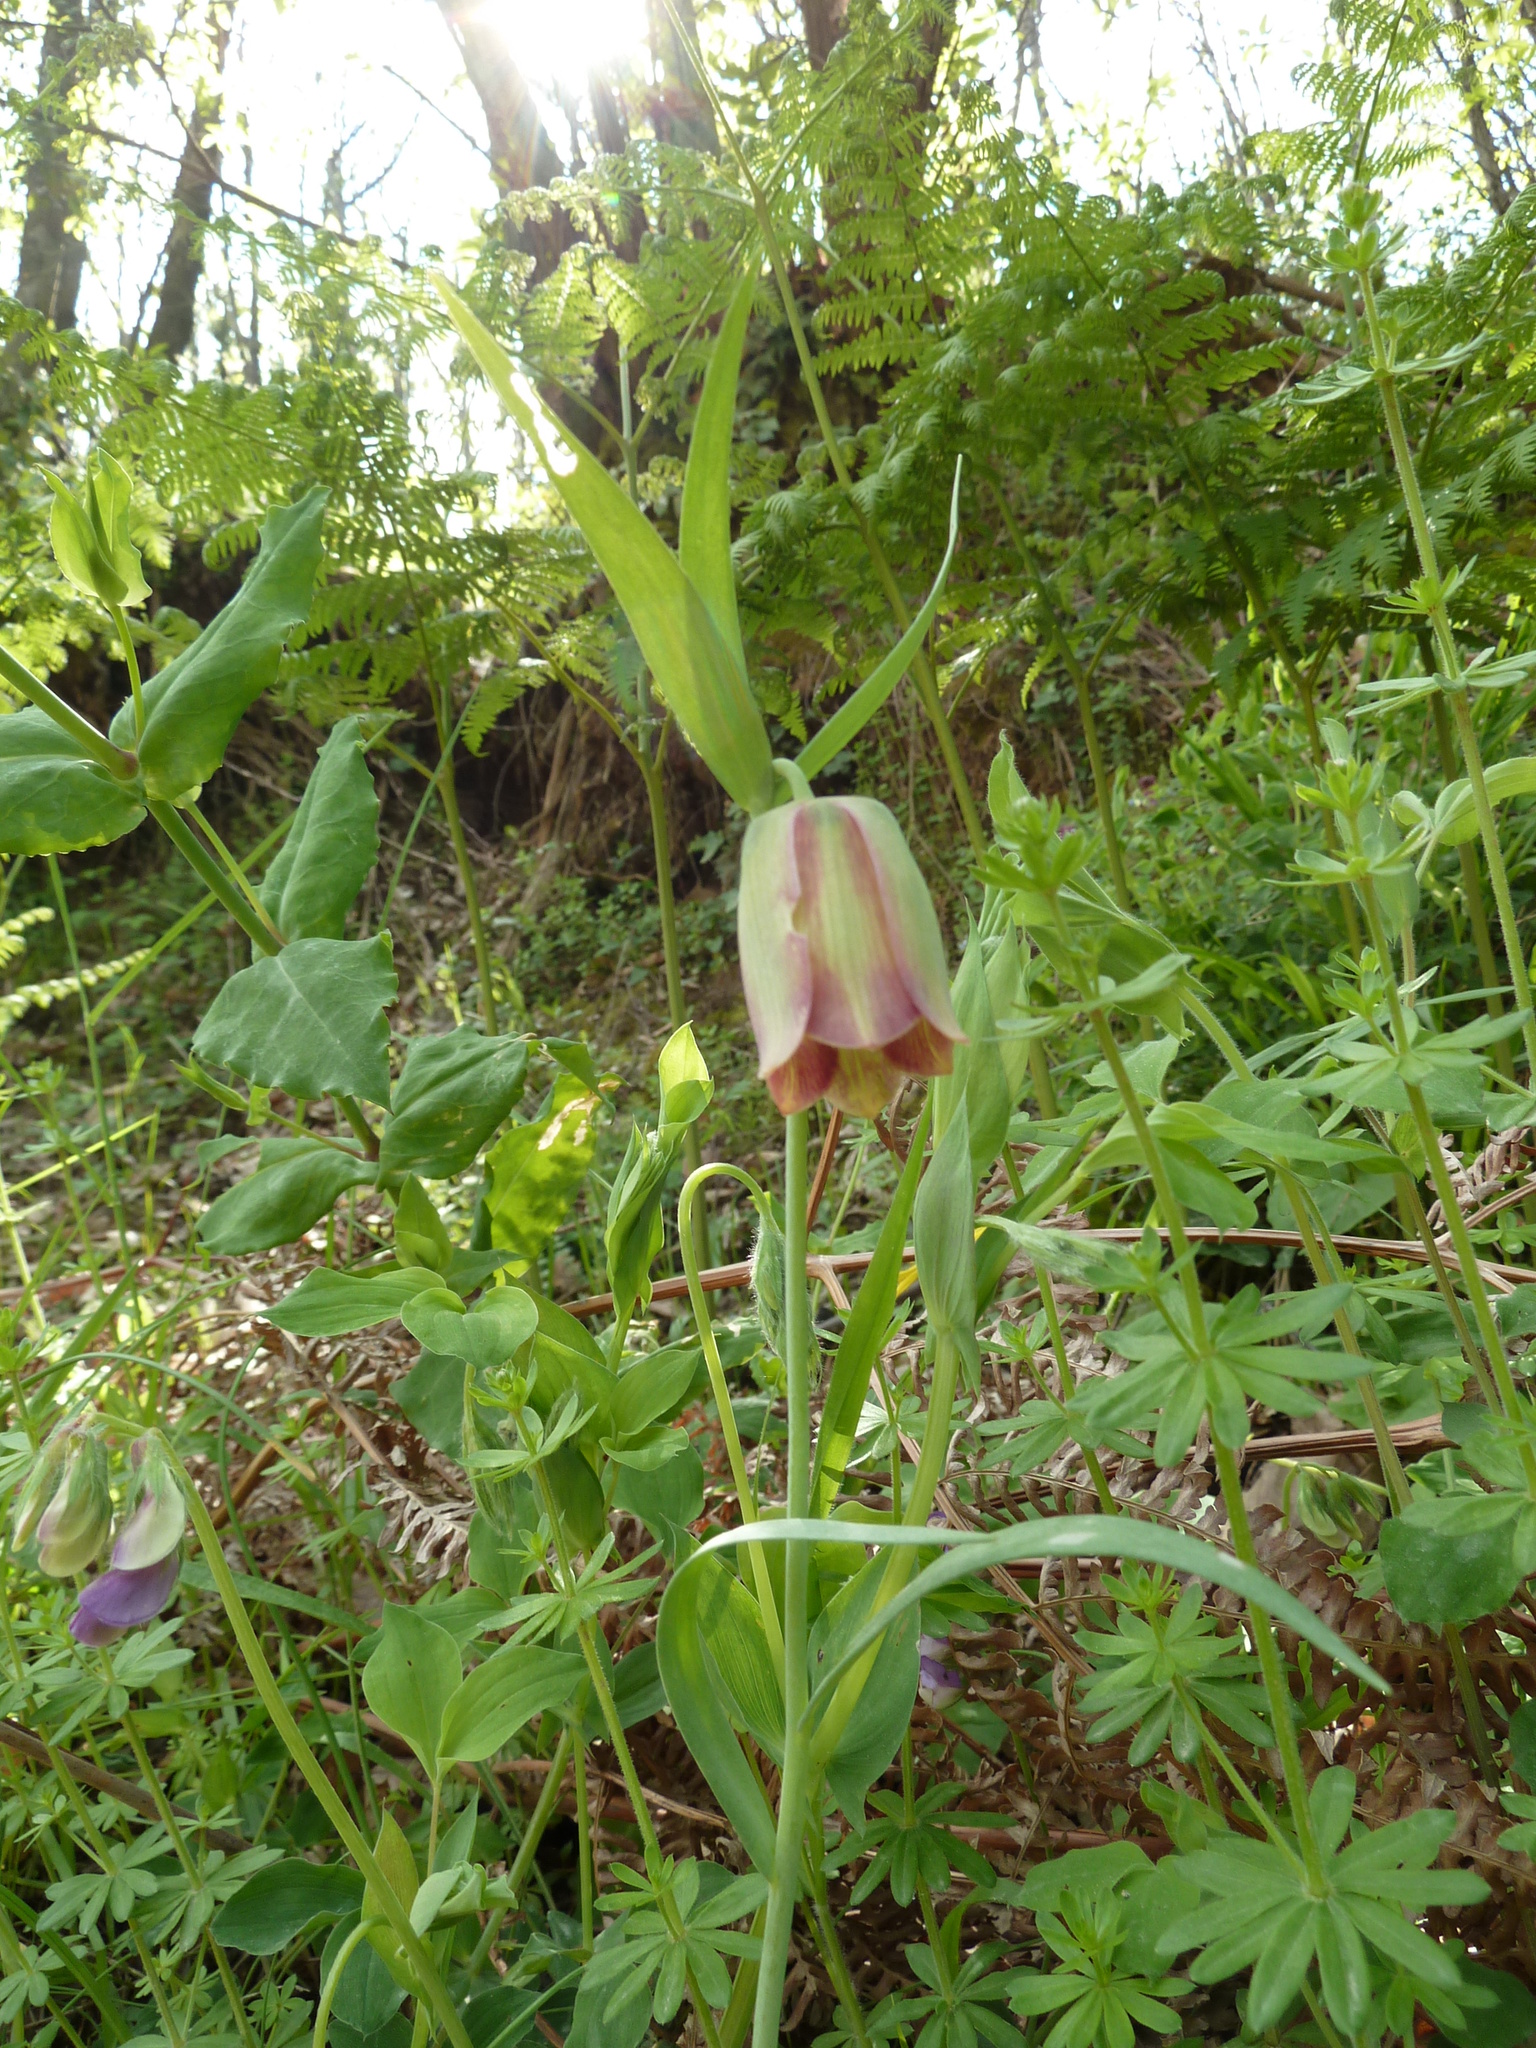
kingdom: Plantae
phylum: Tracheophyta
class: Liliopsida
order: Liliales
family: Liliaceae
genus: Fritillaria
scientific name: Fritillaria pontica
